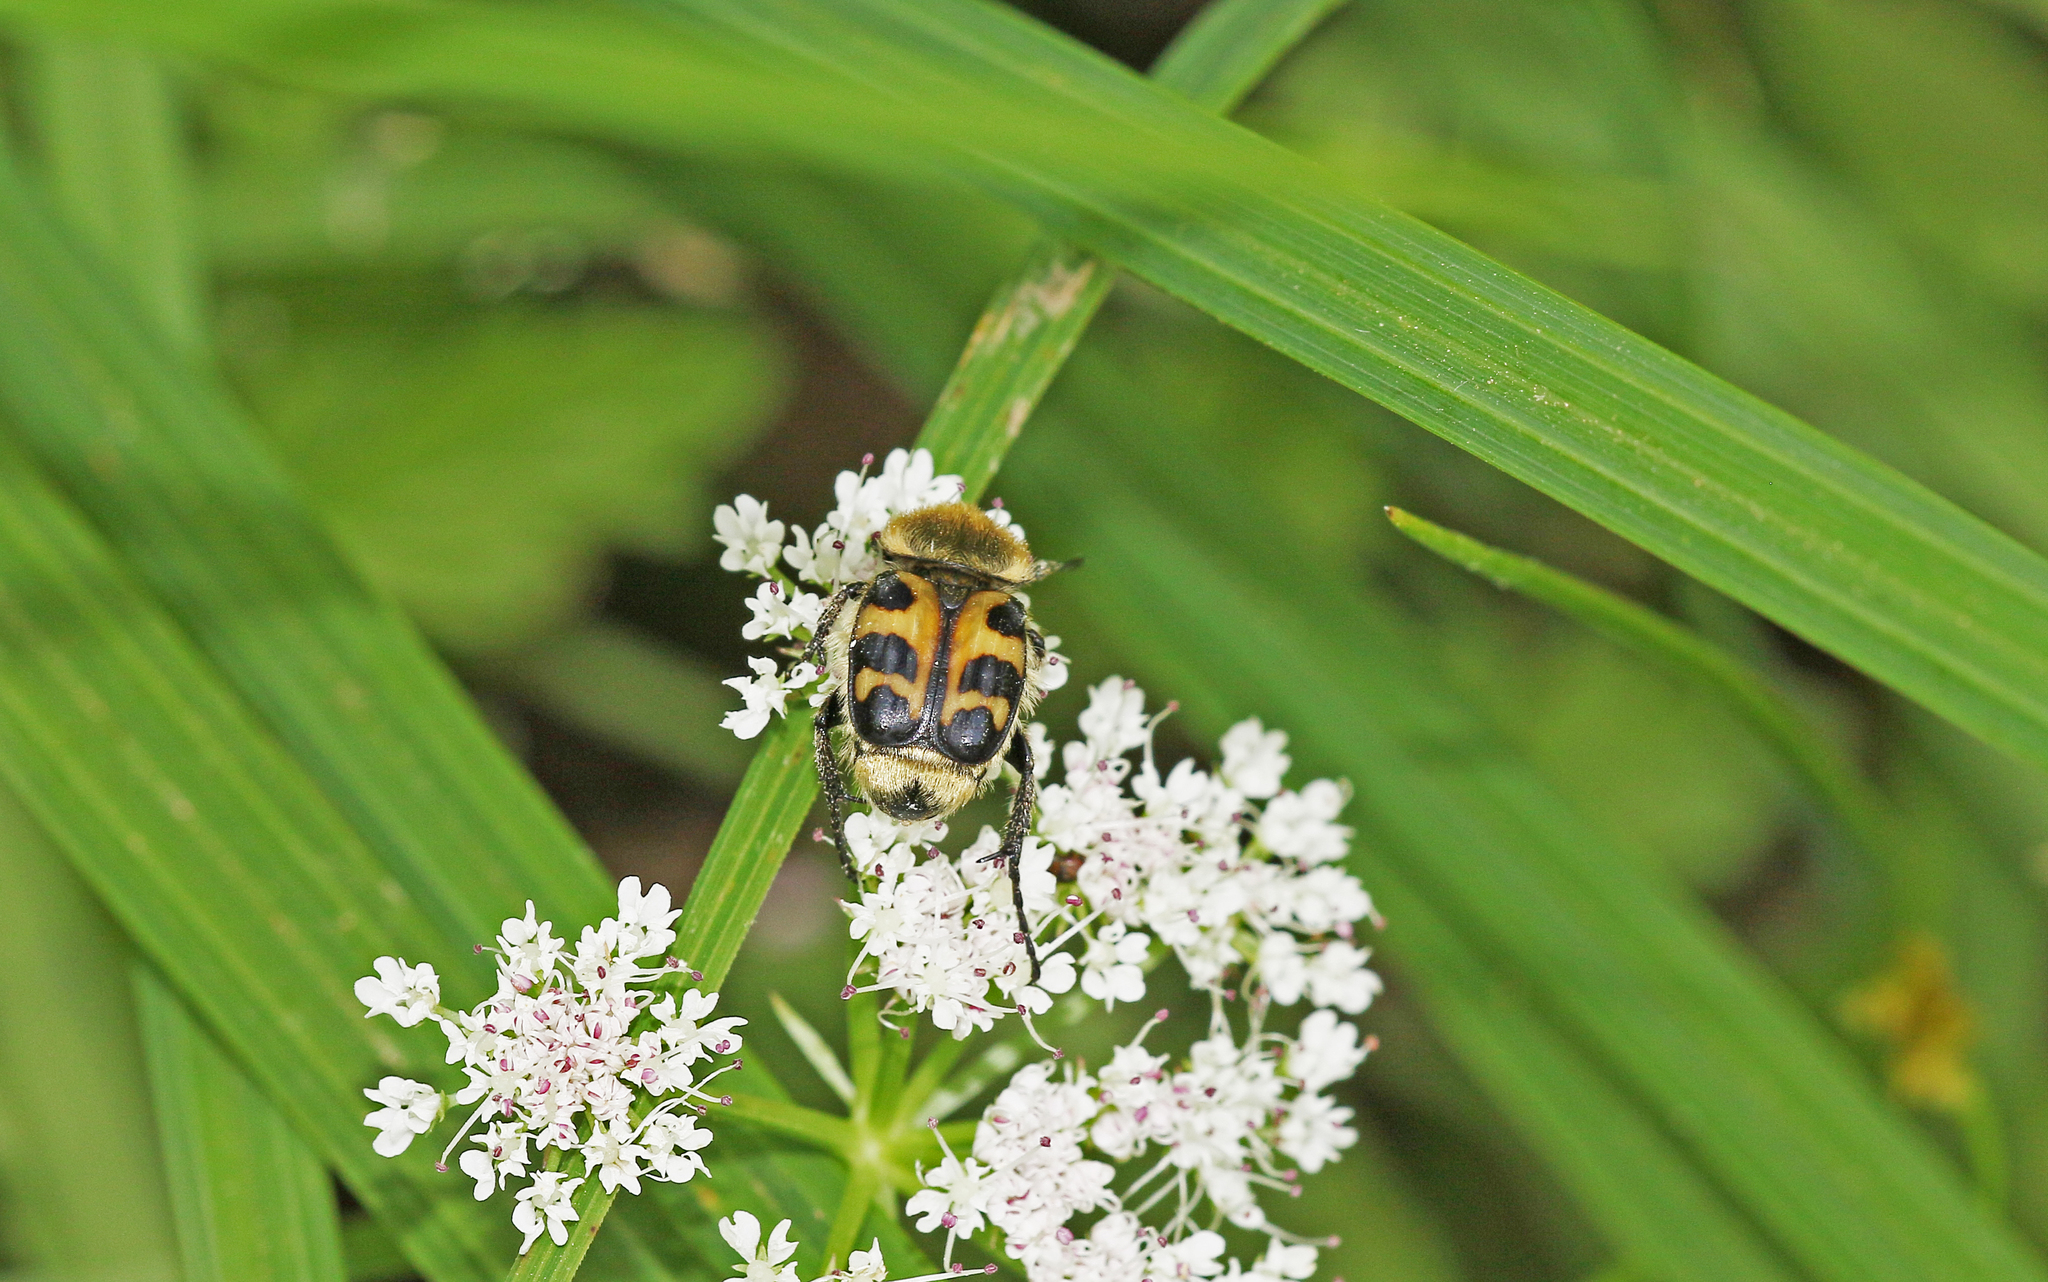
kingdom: Animalia
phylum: Arthropoda
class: Insecta
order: Coleoptera
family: Scarabaeidae
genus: Trichius
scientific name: Trichius gallicus
